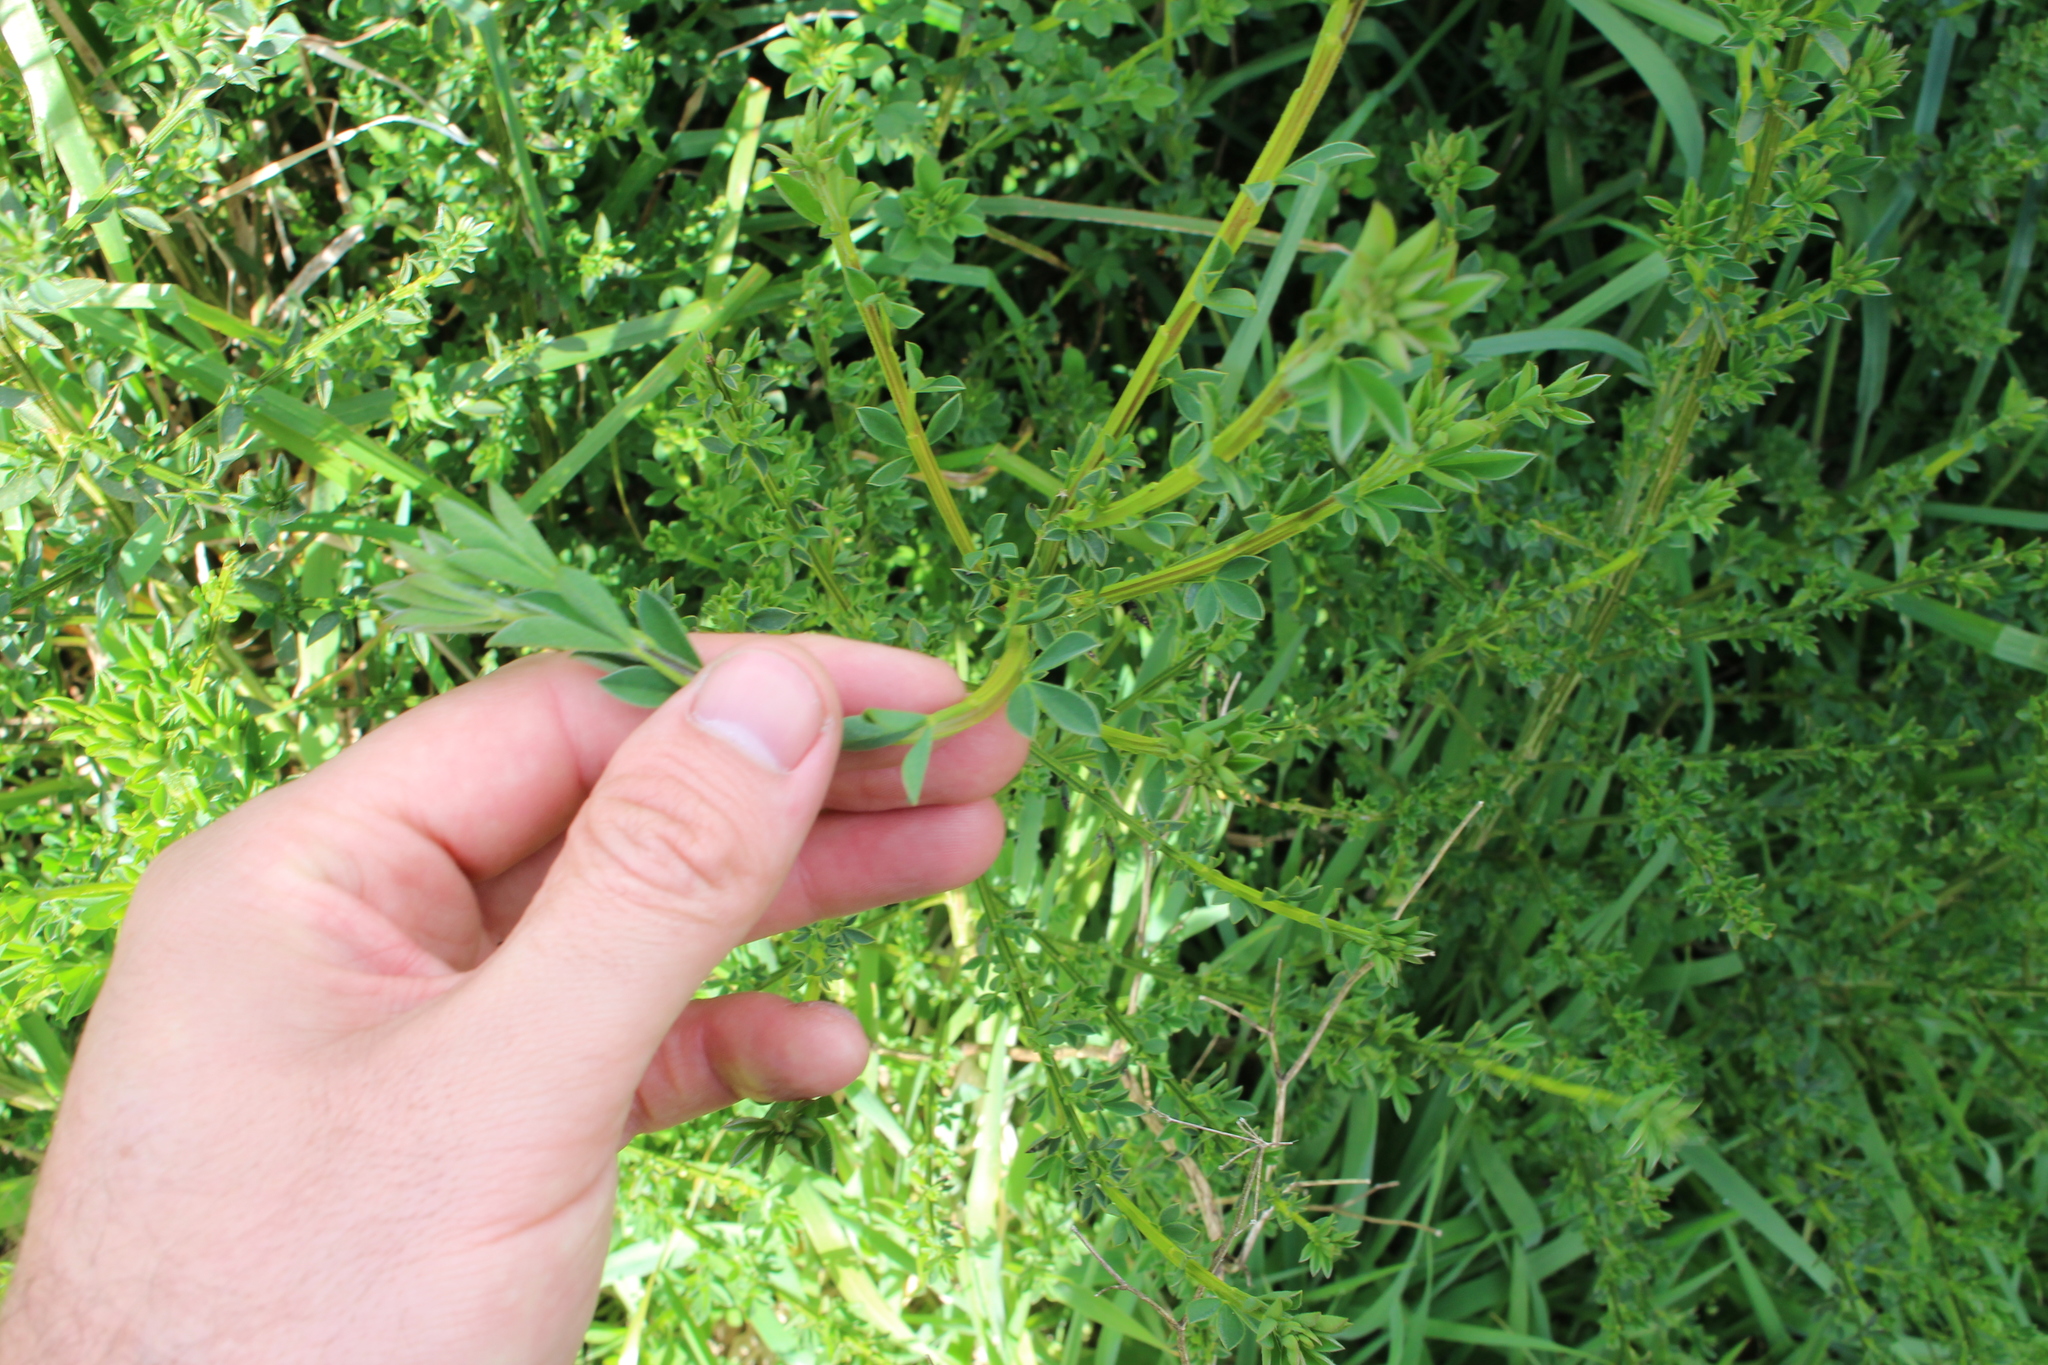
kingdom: Plantae
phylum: Tracheophyta
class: Magnoliopsida
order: Fabales
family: Fabaceae
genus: Cytisus
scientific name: Cytisus scoparius
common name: Scotch broom
